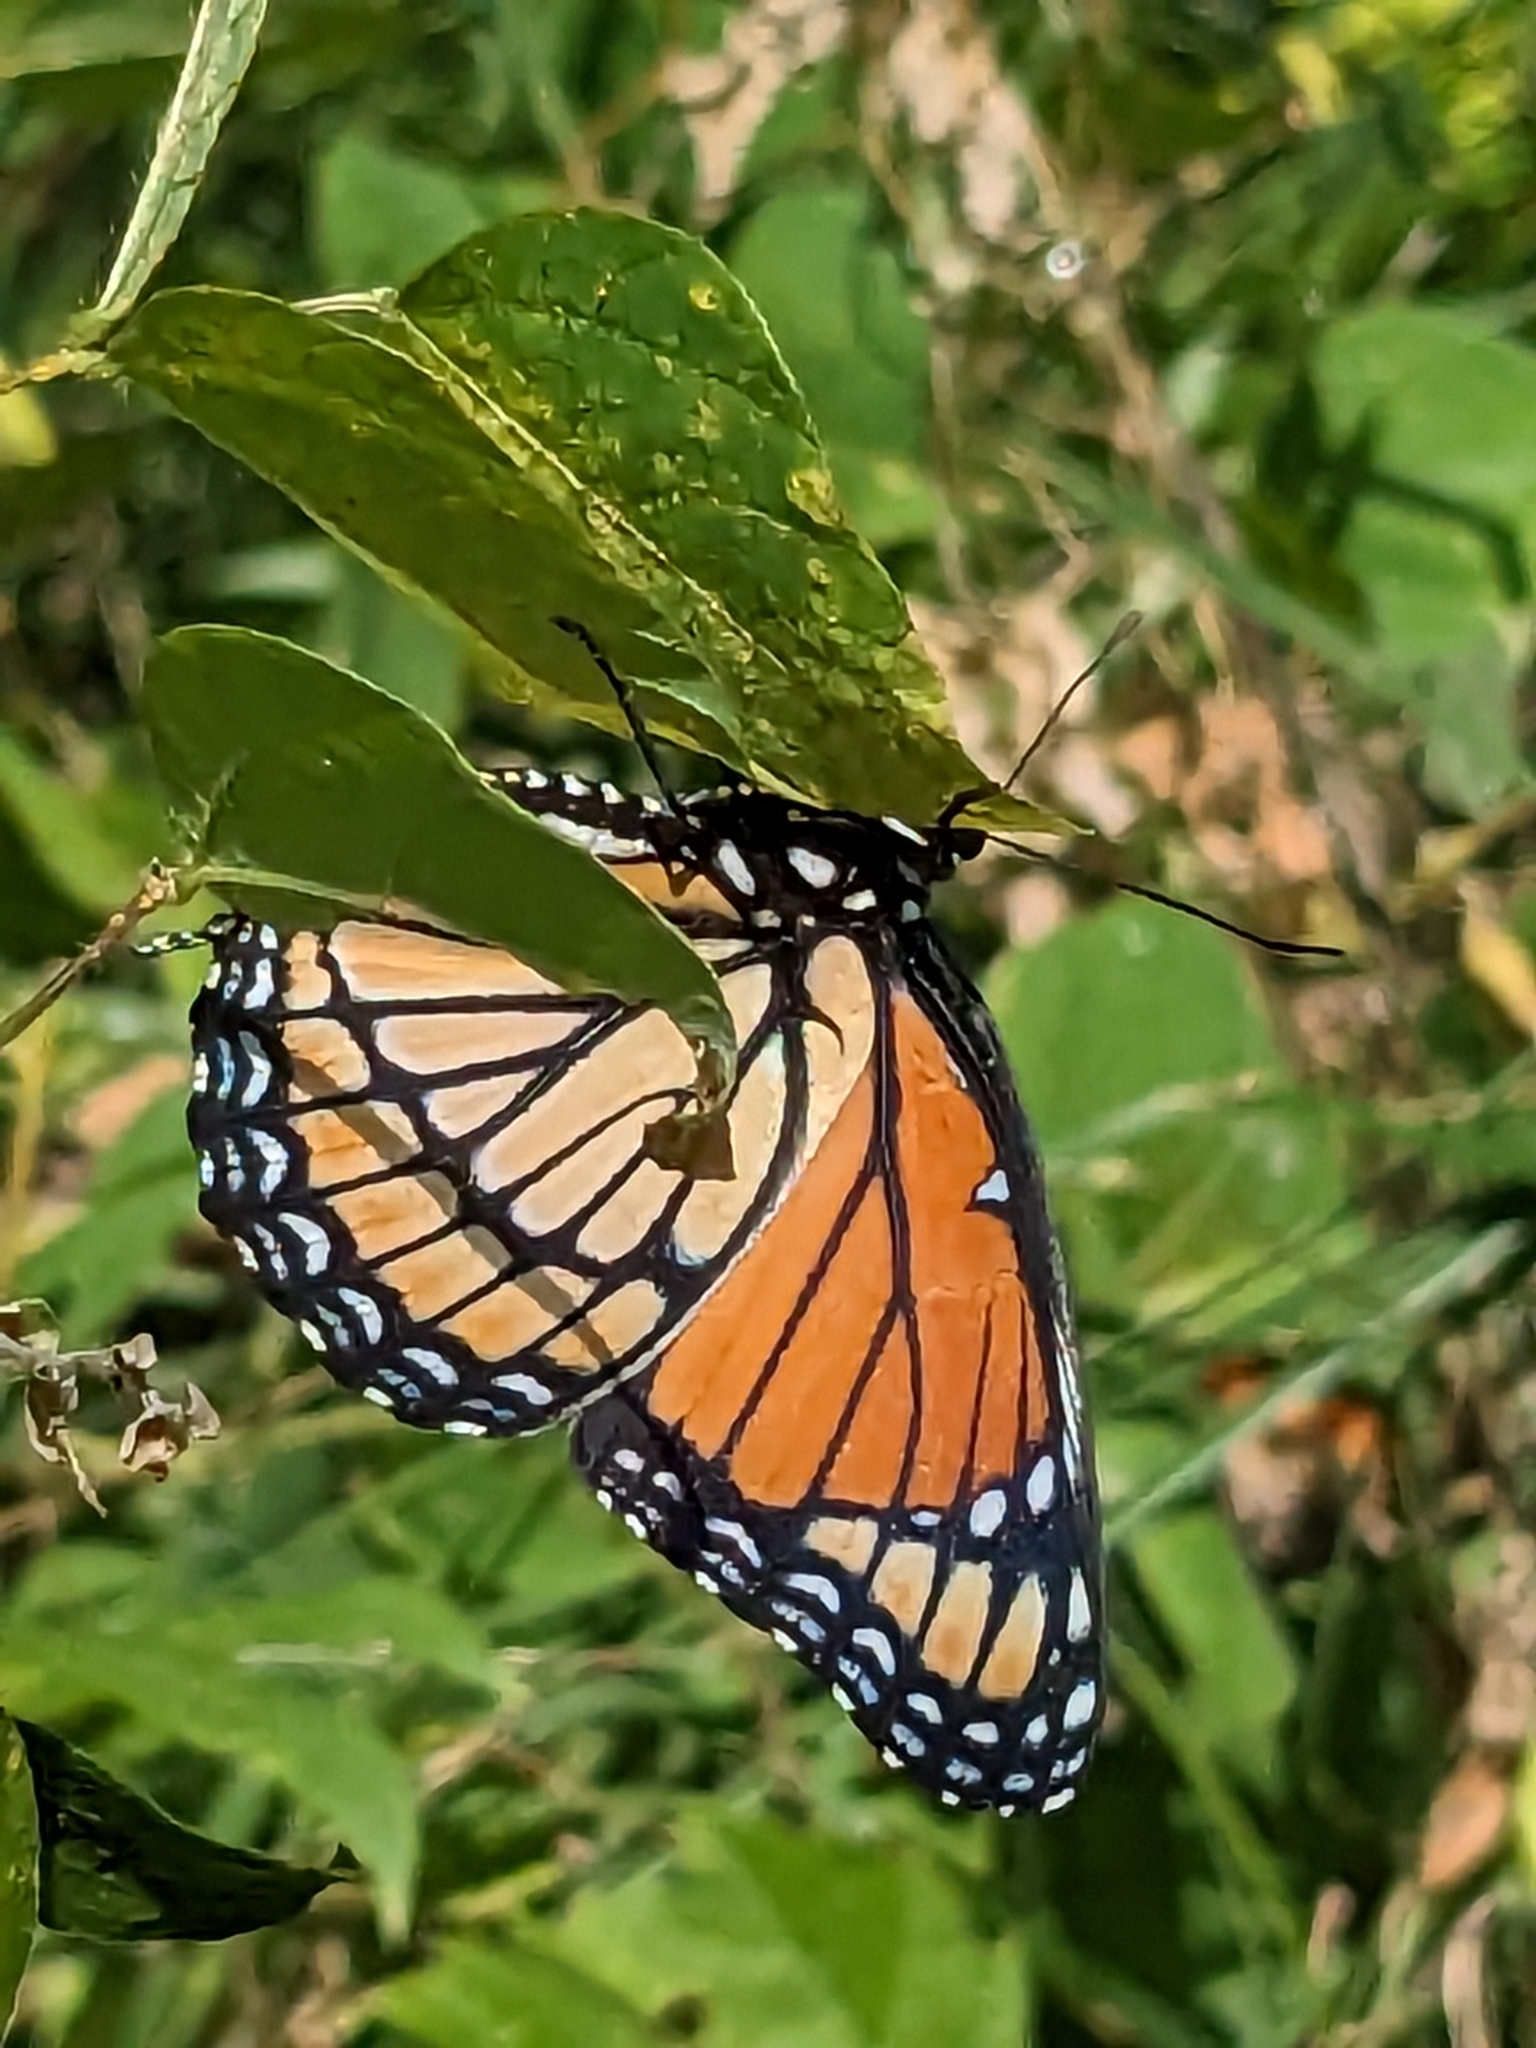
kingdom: Animalia
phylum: Arthropoda
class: Insecta
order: Lepidoptera
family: Nymphalidae
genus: Limenitis
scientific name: Limenitis archippus
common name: Viceroy
